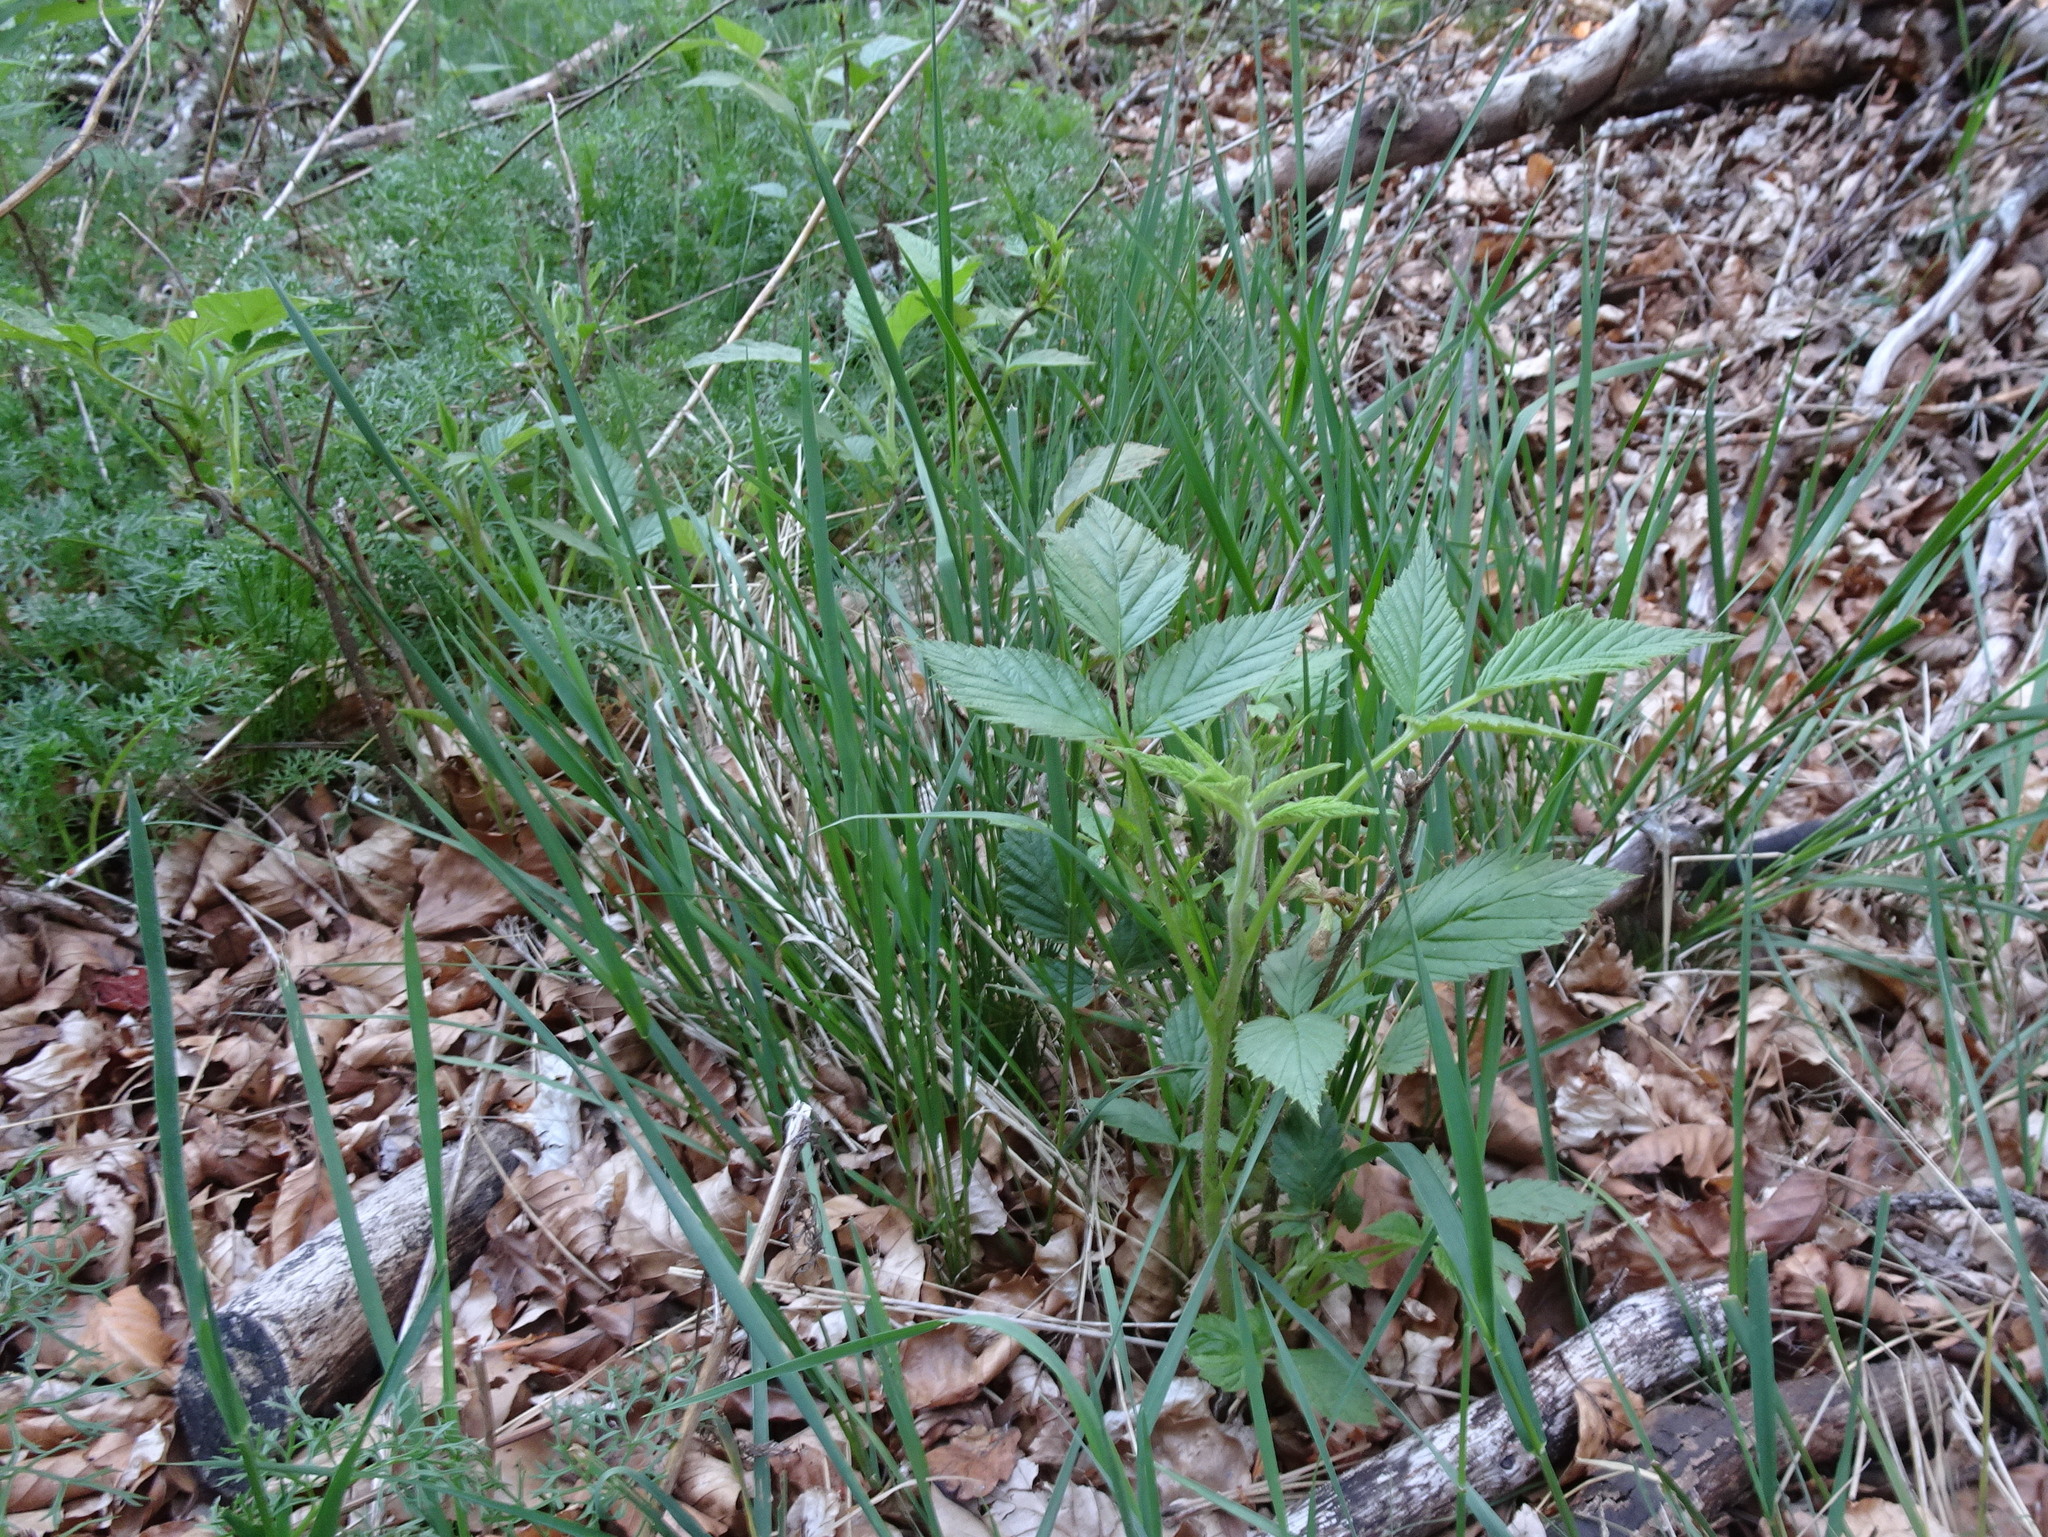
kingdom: Plantae
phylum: Tracheophyta
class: Magnoliopsida
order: Rosales
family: Rosaceae
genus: Rubus
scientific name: Rubus idaeus
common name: Raspberry
